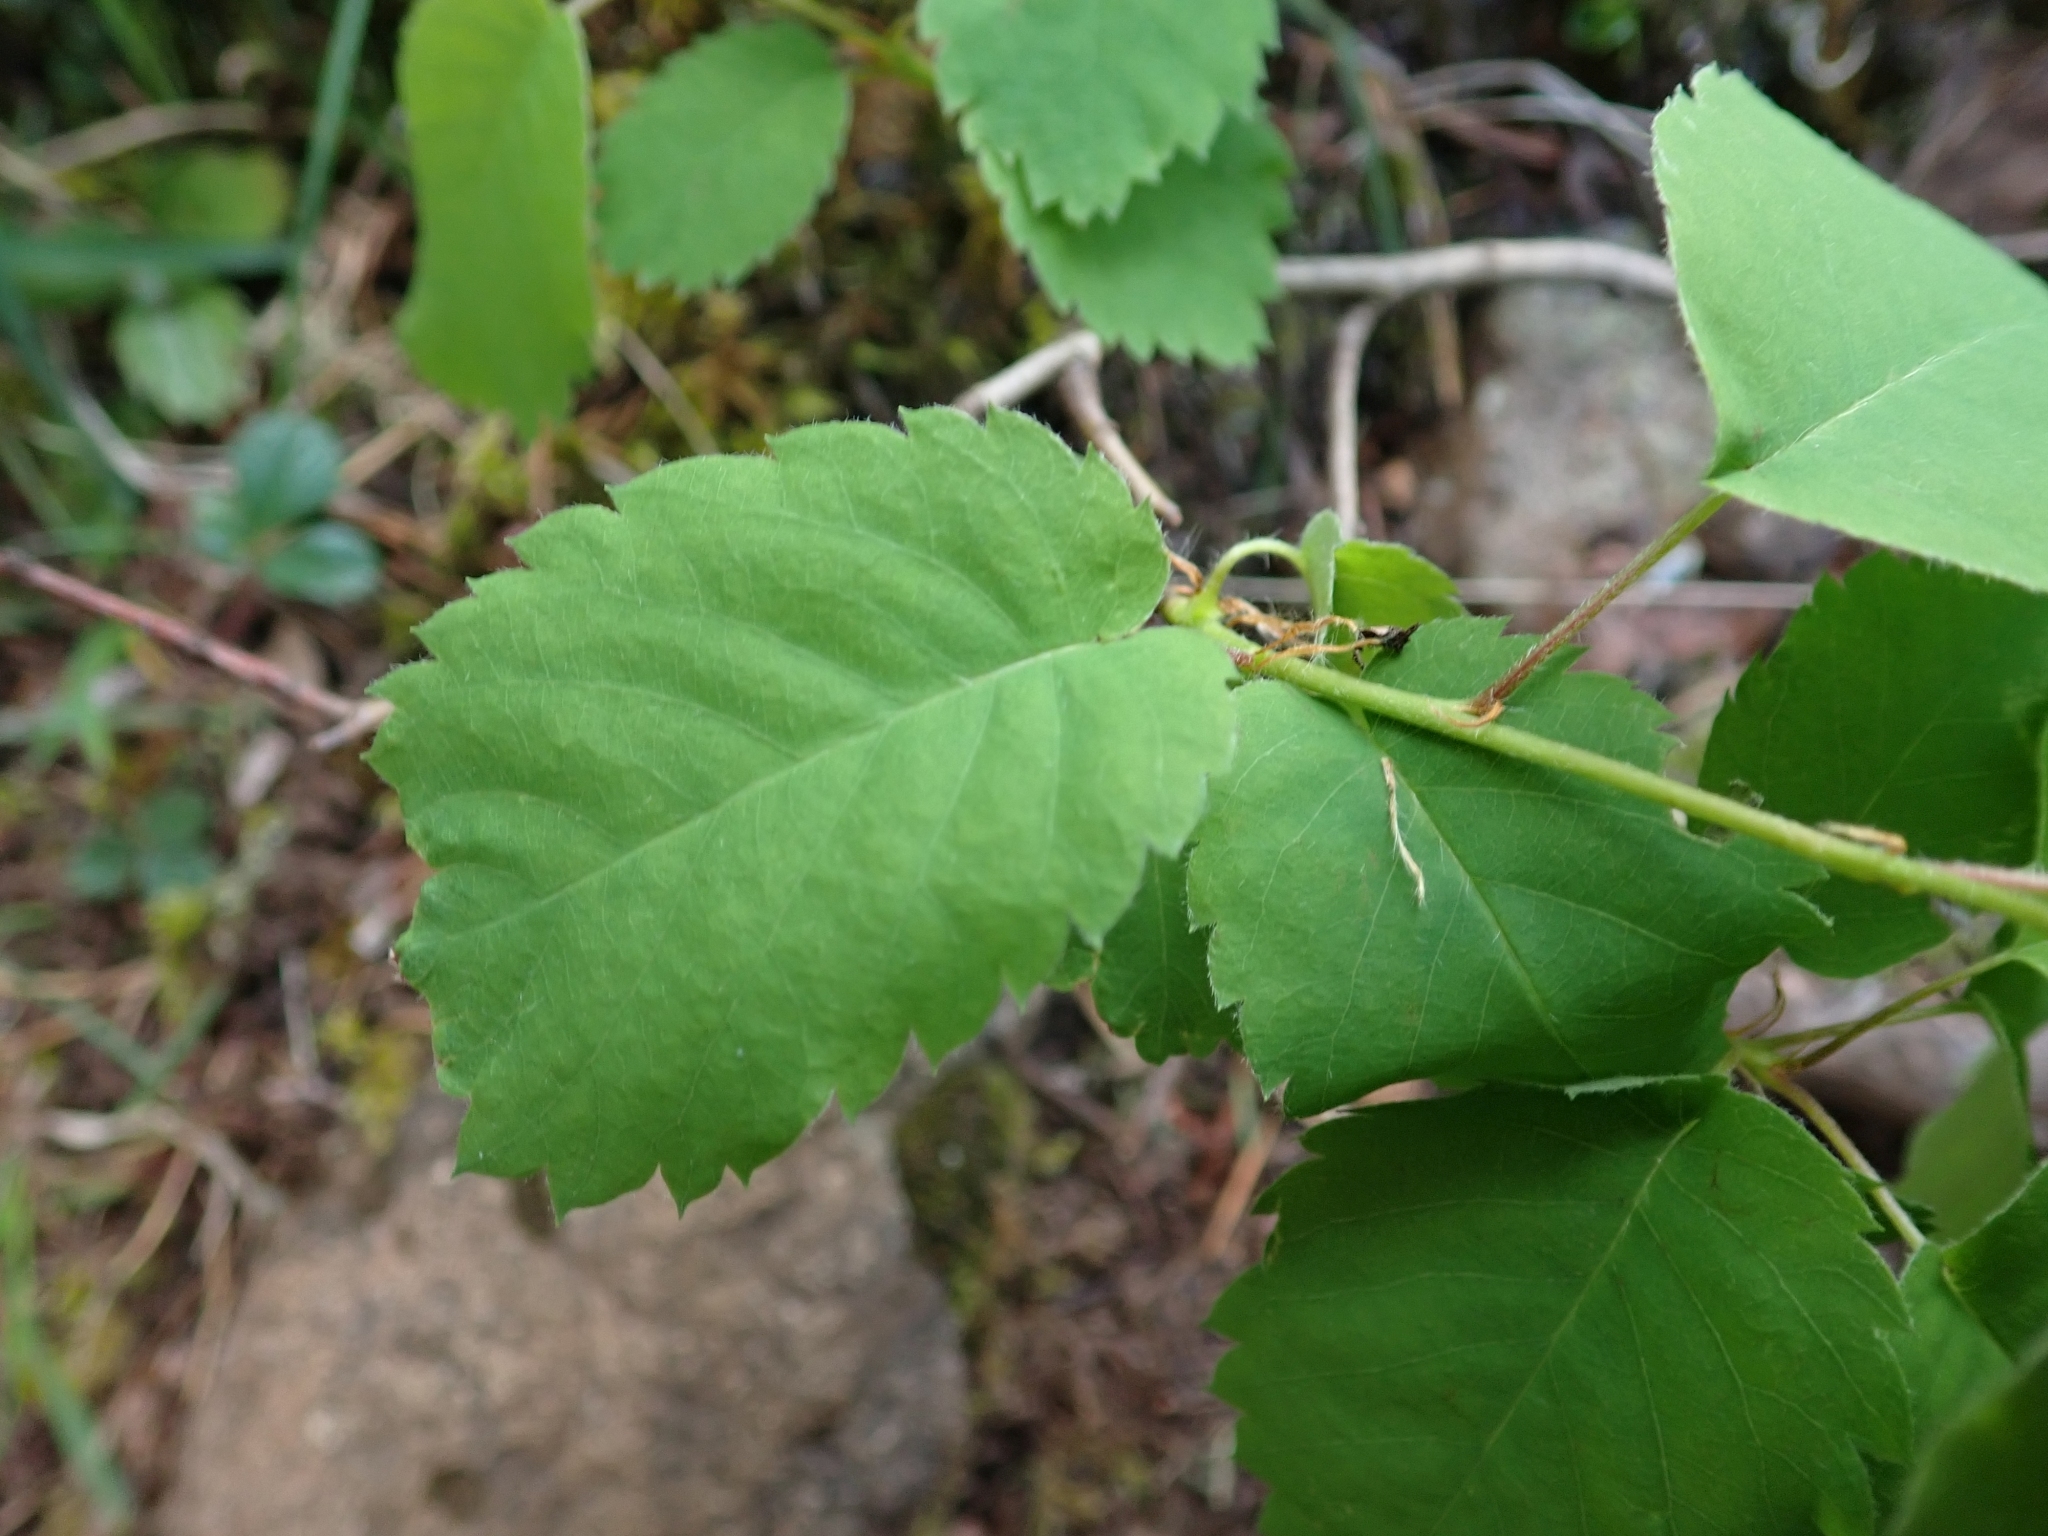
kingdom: Plantae
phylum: Tracheophyta
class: Magnoliopsida
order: Rosales
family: Rosaceae
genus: Amelanchier
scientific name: Amelanchier alnifolia
